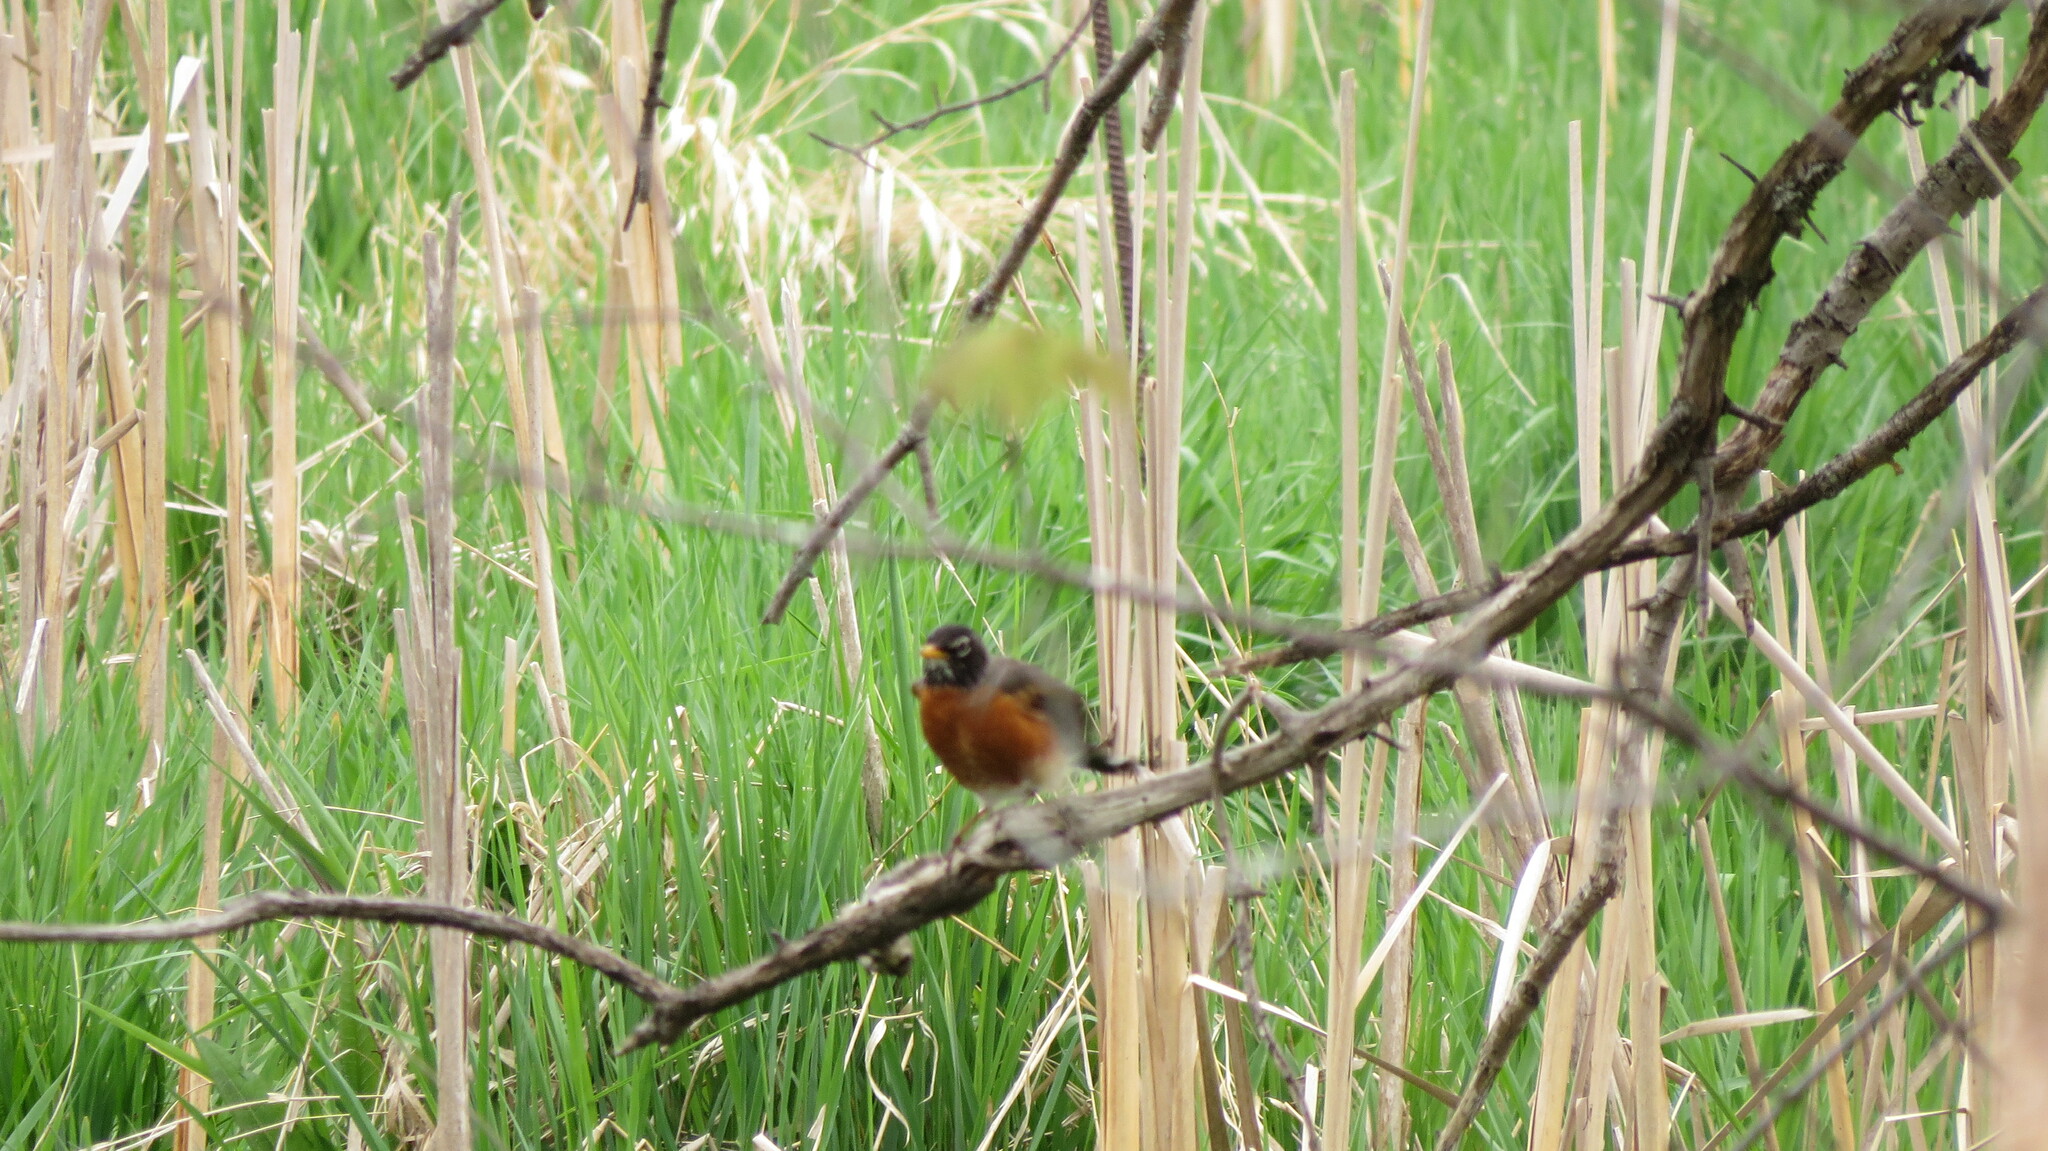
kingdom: Animalia
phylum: Chordata
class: Aves
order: Passeriformes
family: Turdidae
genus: Turdus
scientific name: Turdus migratorius
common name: American robin
